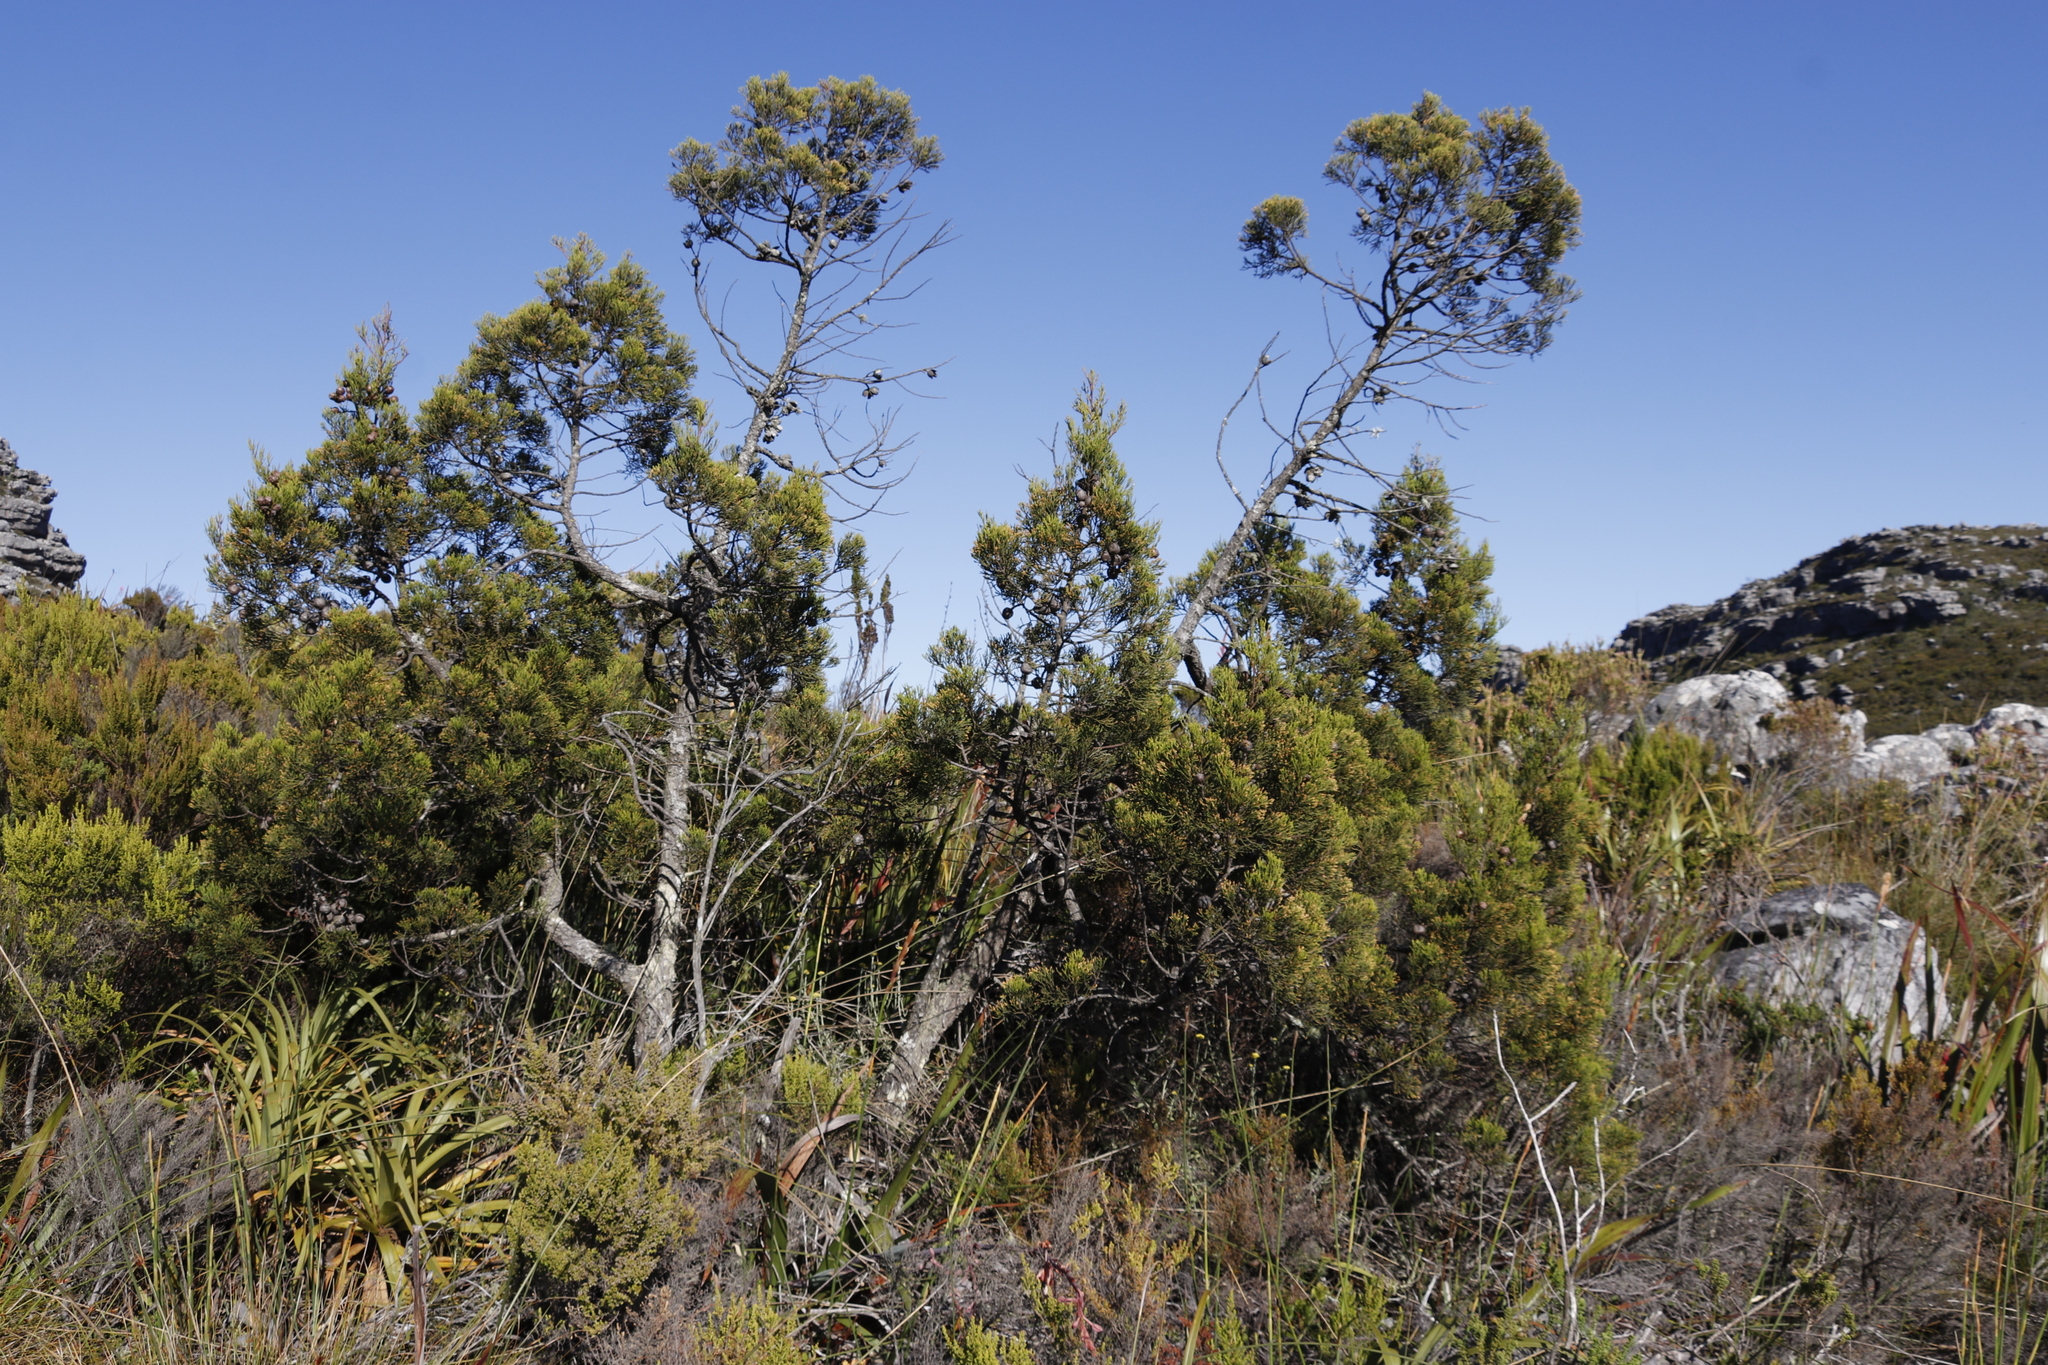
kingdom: Plantae
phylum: Tracheophyta
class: Pinopsida
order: Pinales
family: Cupressaceae
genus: Widdringtonia
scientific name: Widdringtonia nodiflora
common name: Cape cypress
